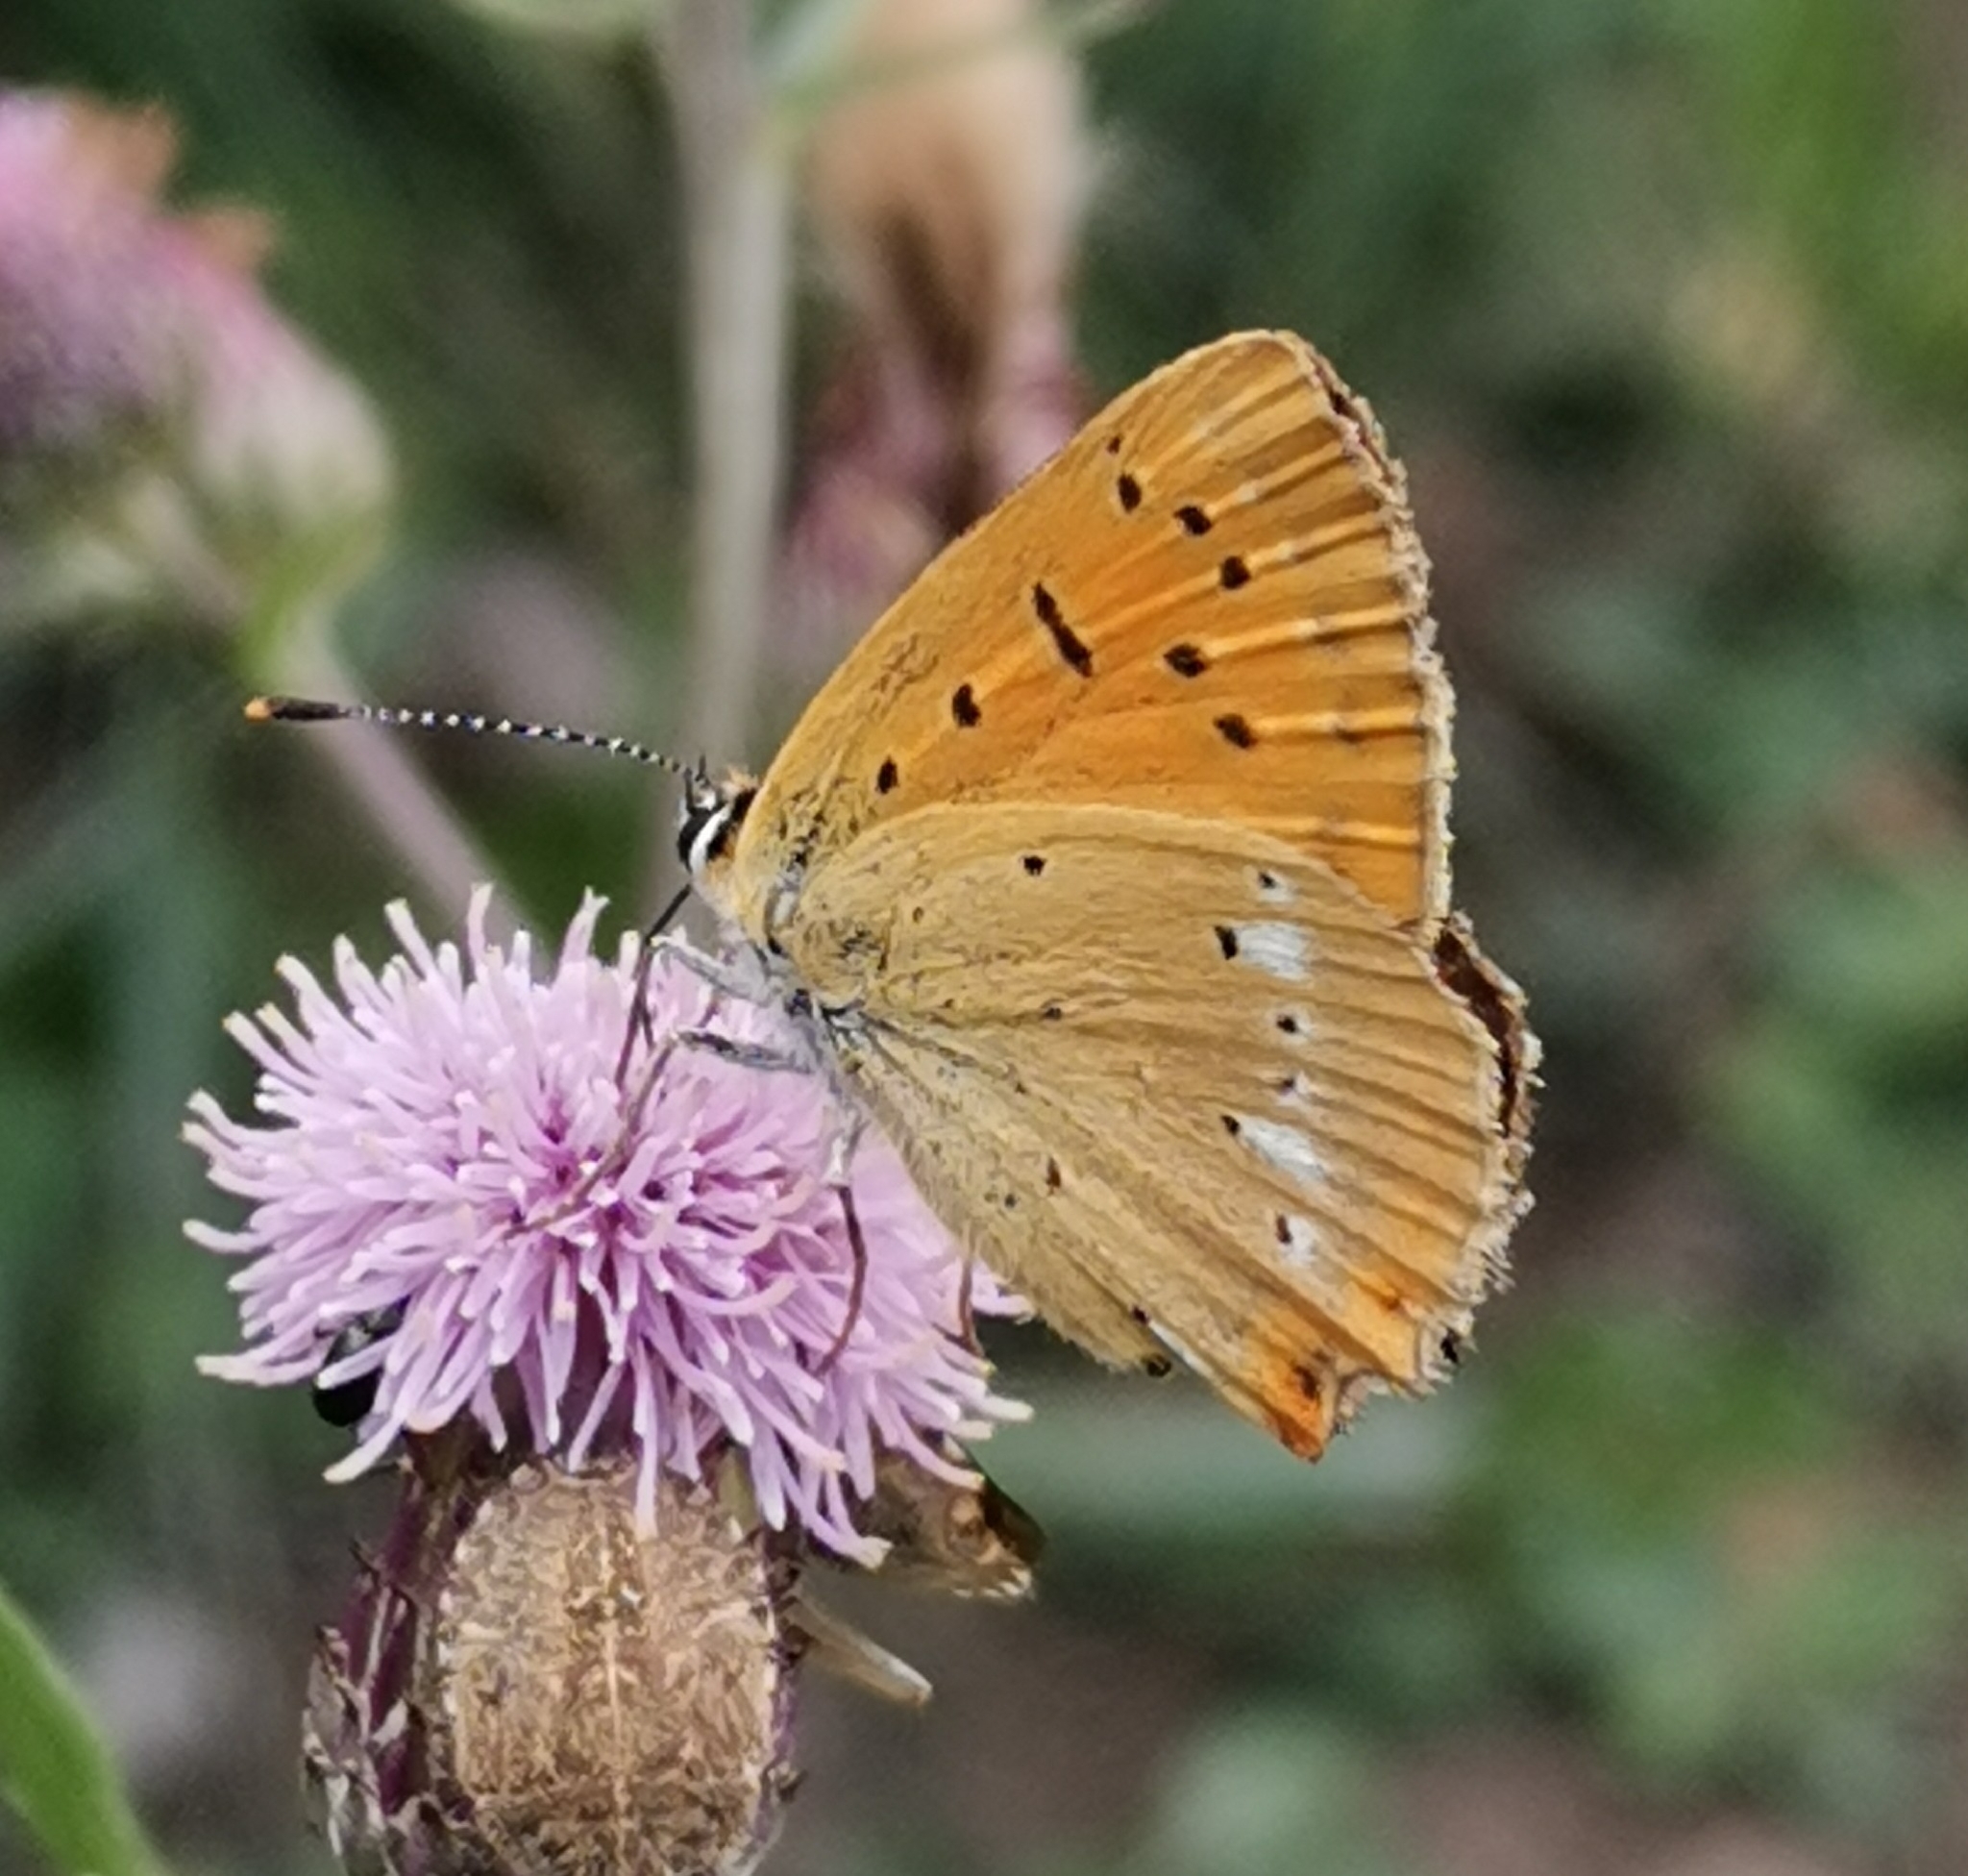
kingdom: Animalia
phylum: Arthropoda
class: Insecta
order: Lepidoptera
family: Lycaenidae
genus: Lycaena
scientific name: Lycaena virgaureae
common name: Scarce copper
